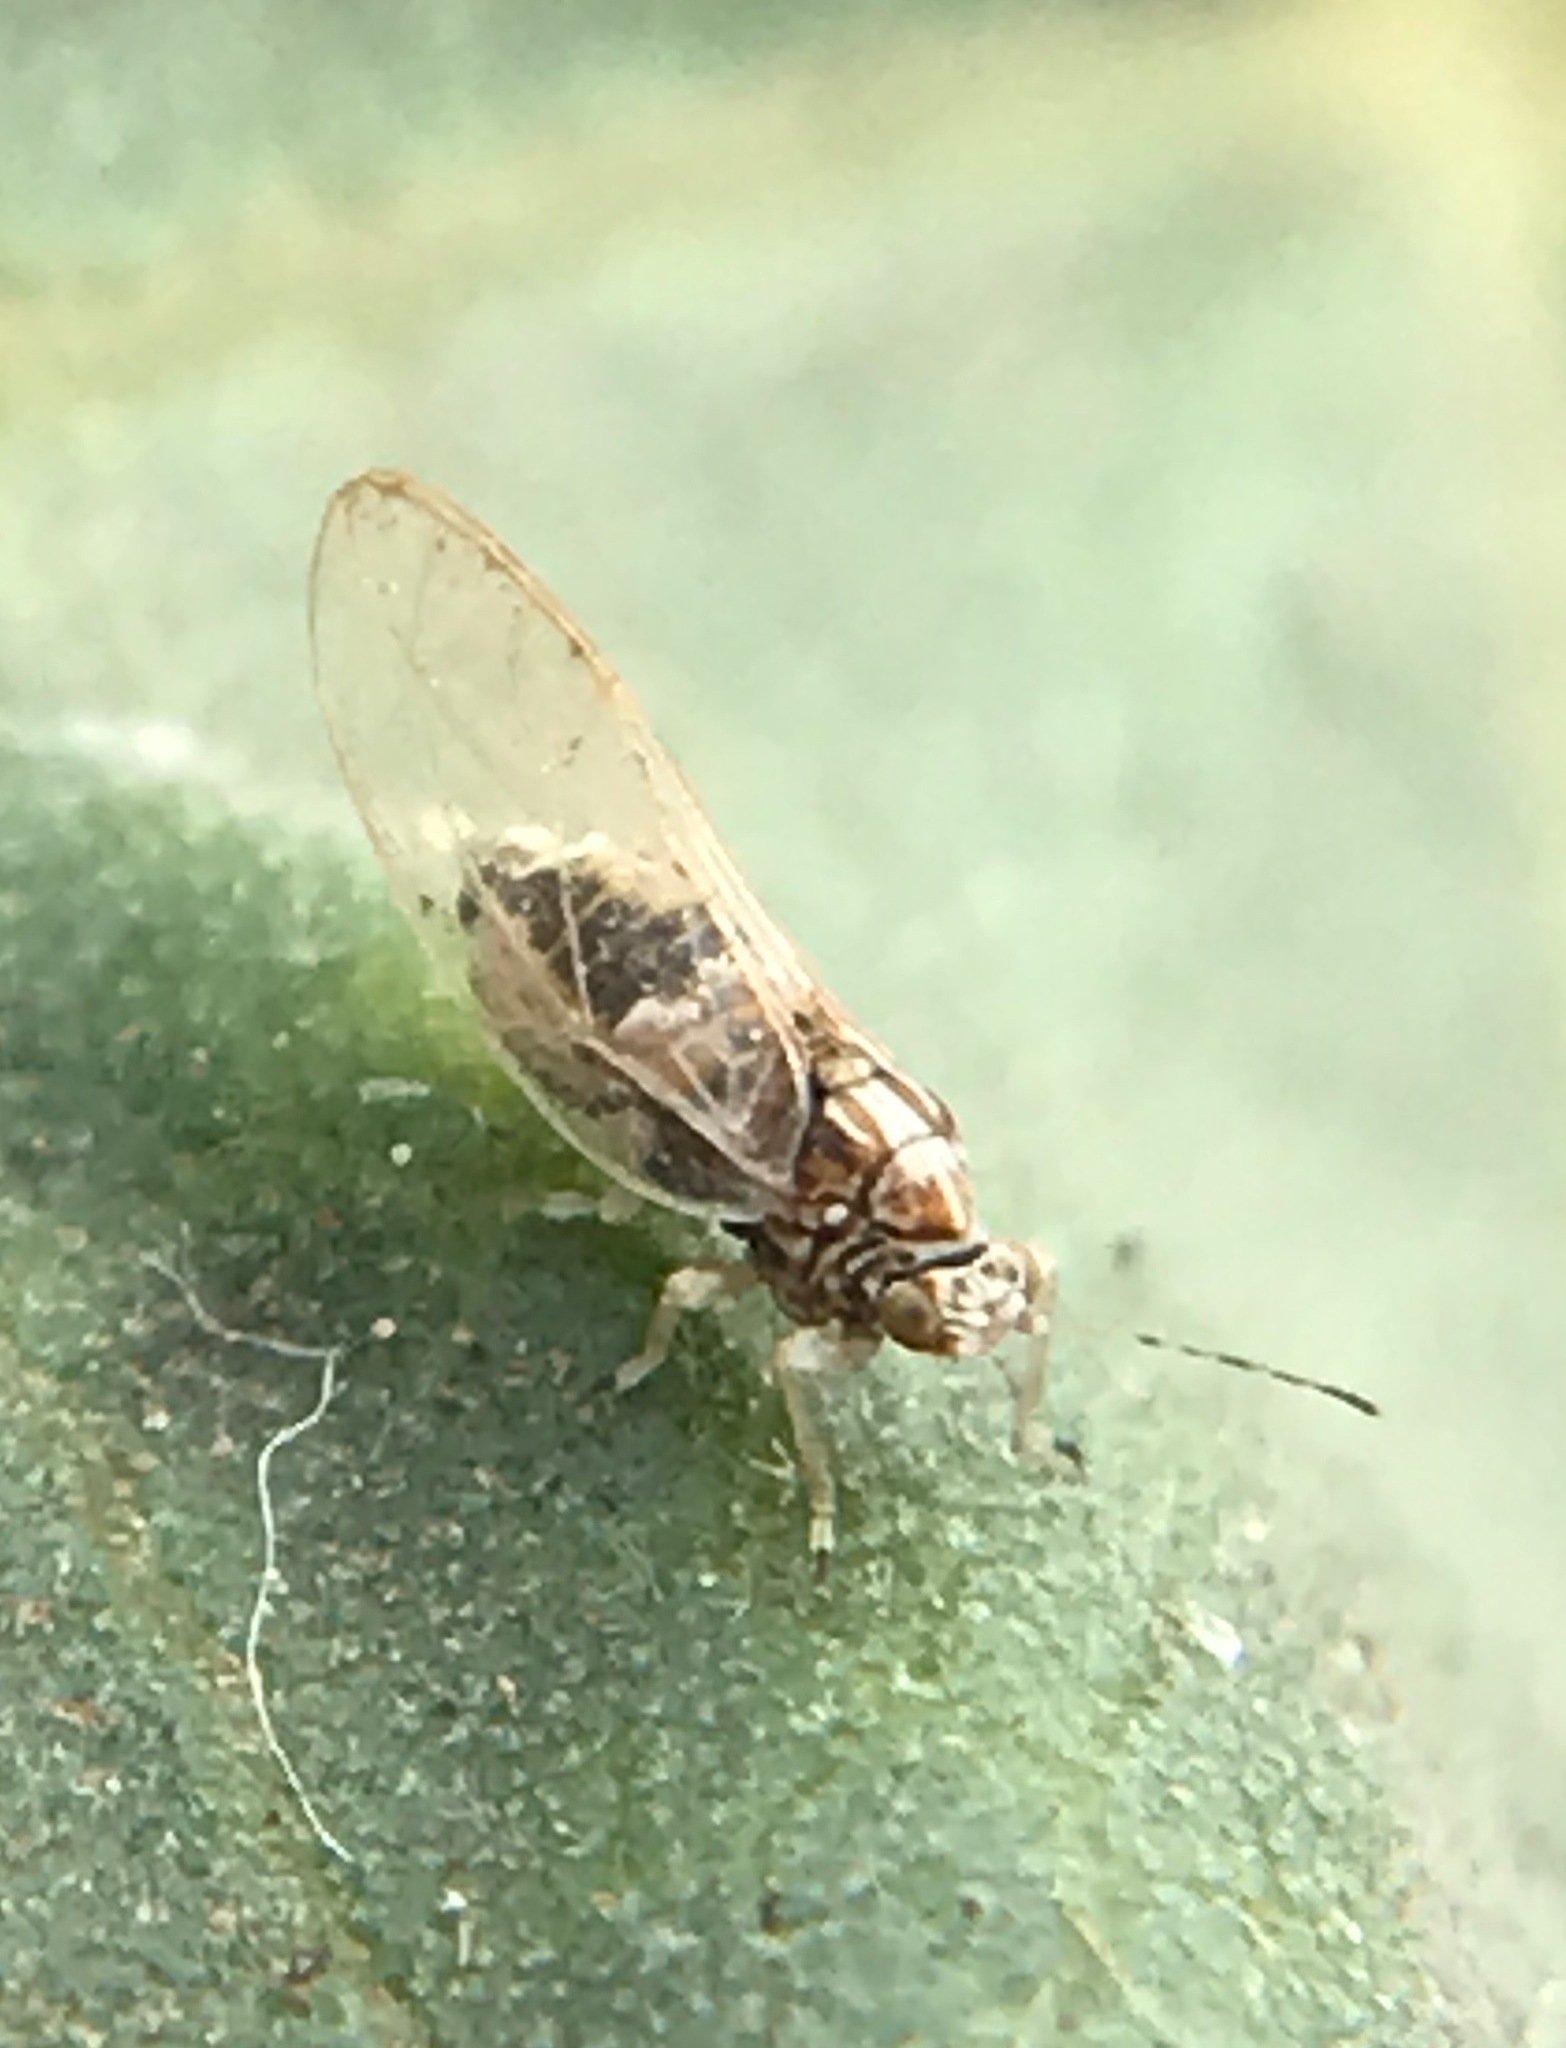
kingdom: Animalia
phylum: Arthropoda
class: Insecta
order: Hemiptera
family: Triozidae
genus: Bactericera
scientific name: Bactericera lavaterae
